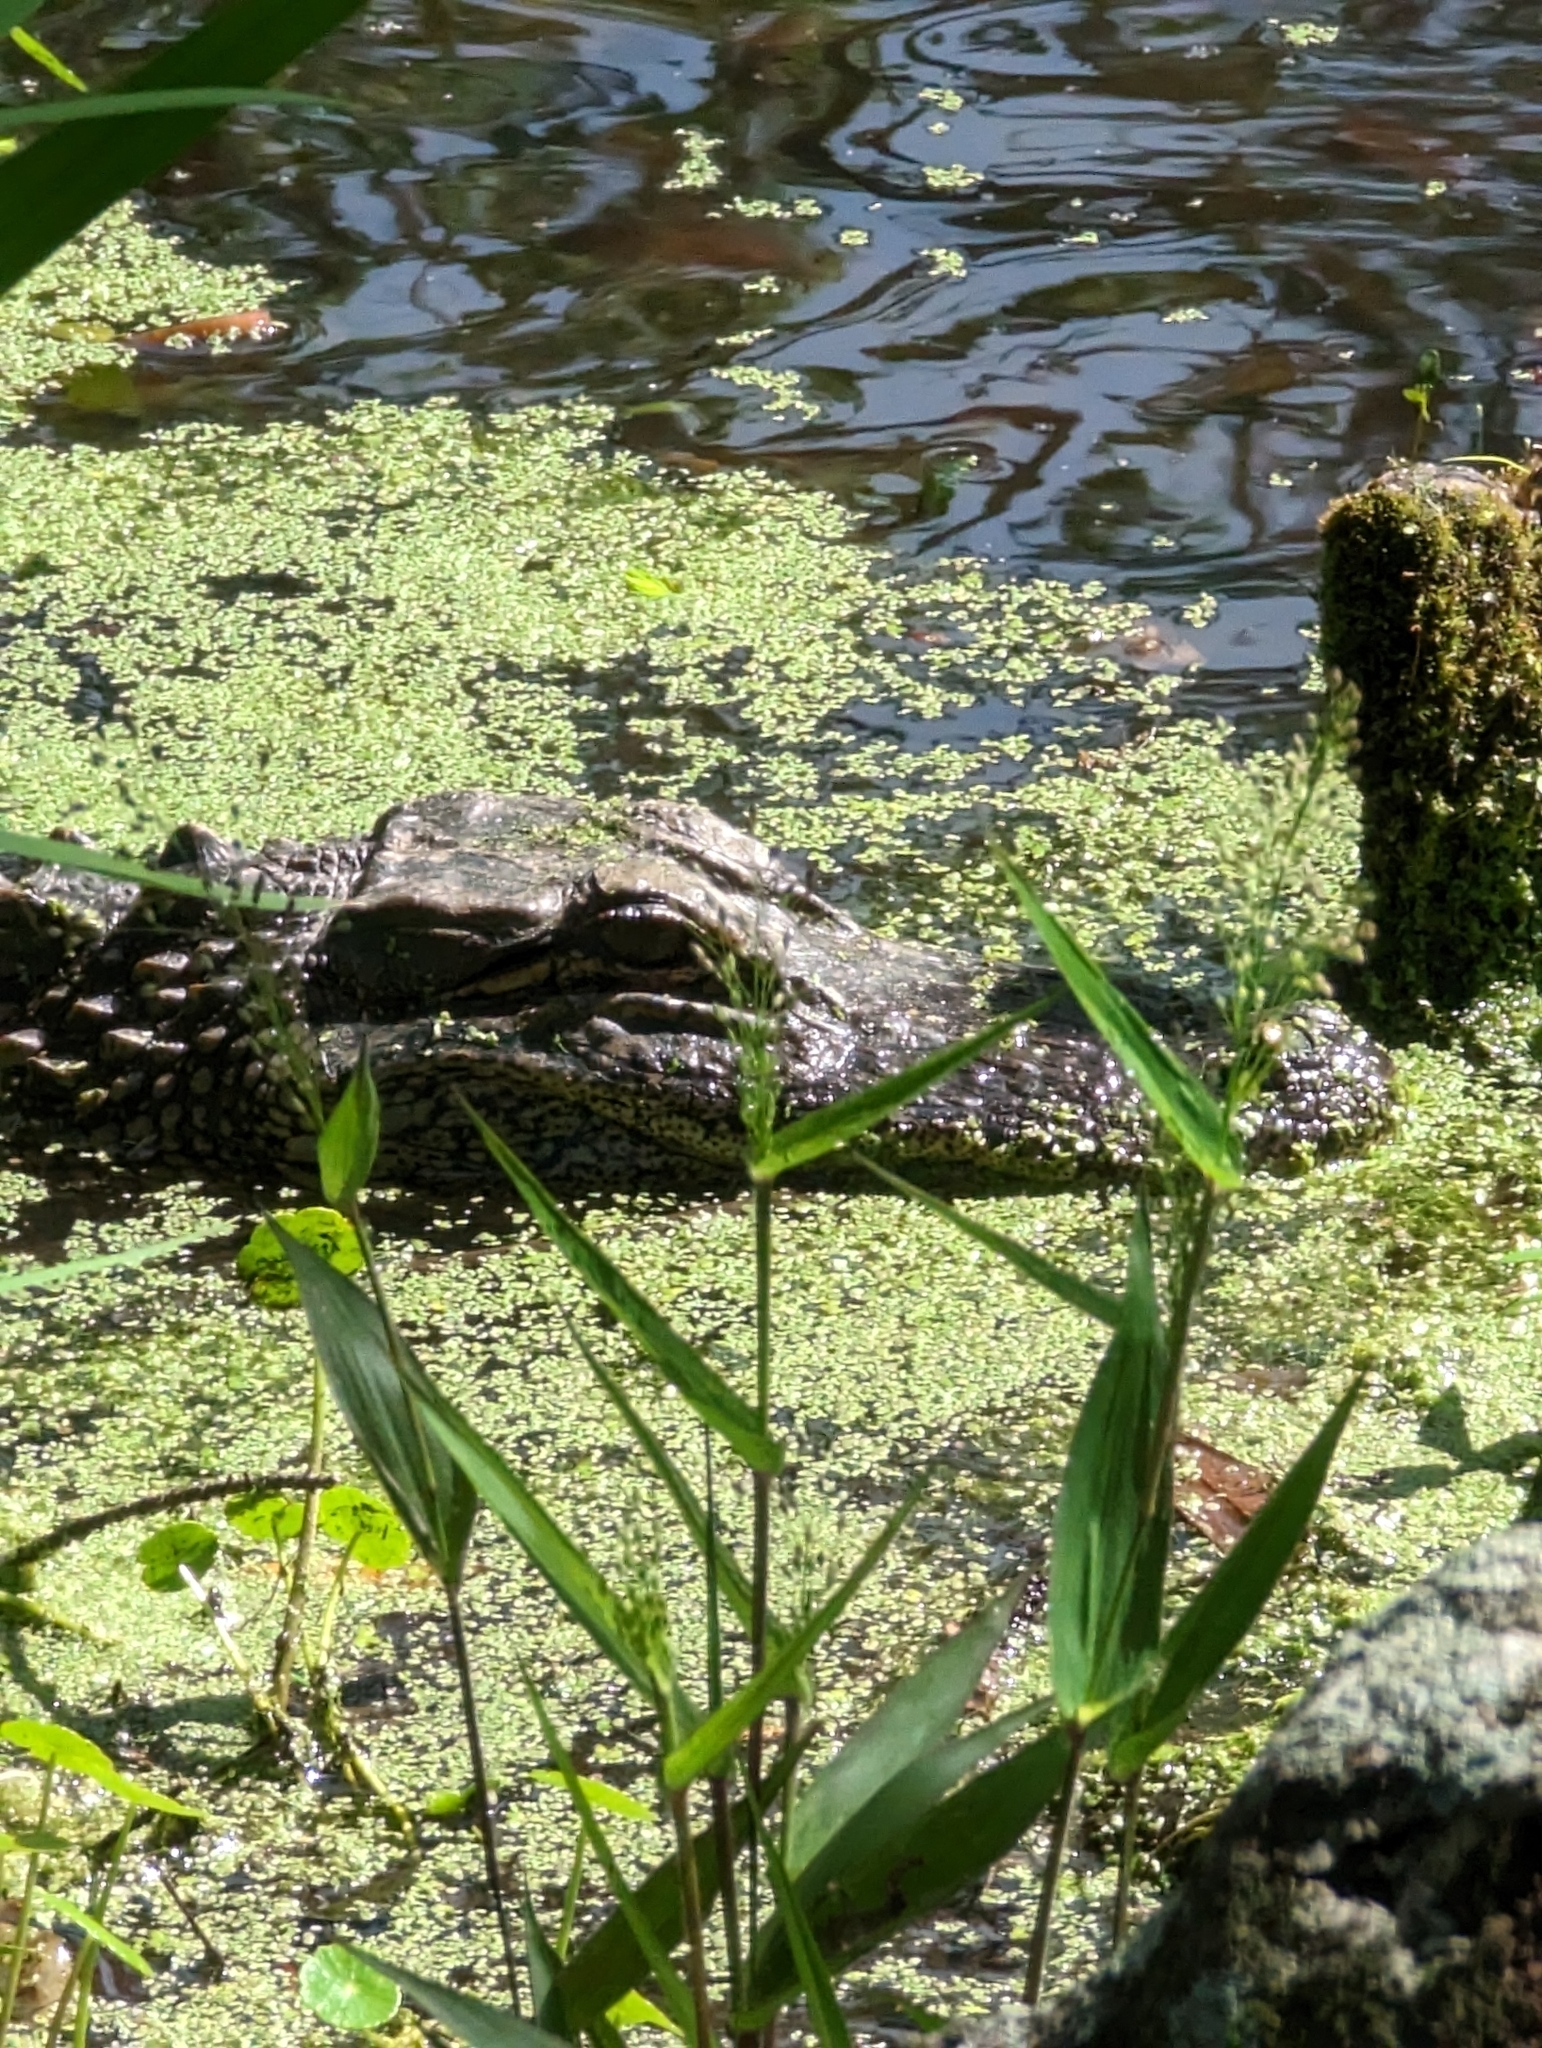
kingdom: Animalia
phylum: Chordata
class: Crocodylia
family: Alligatoridae
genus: Alligator
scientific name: Alligator mississippiensis
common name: American alligator
